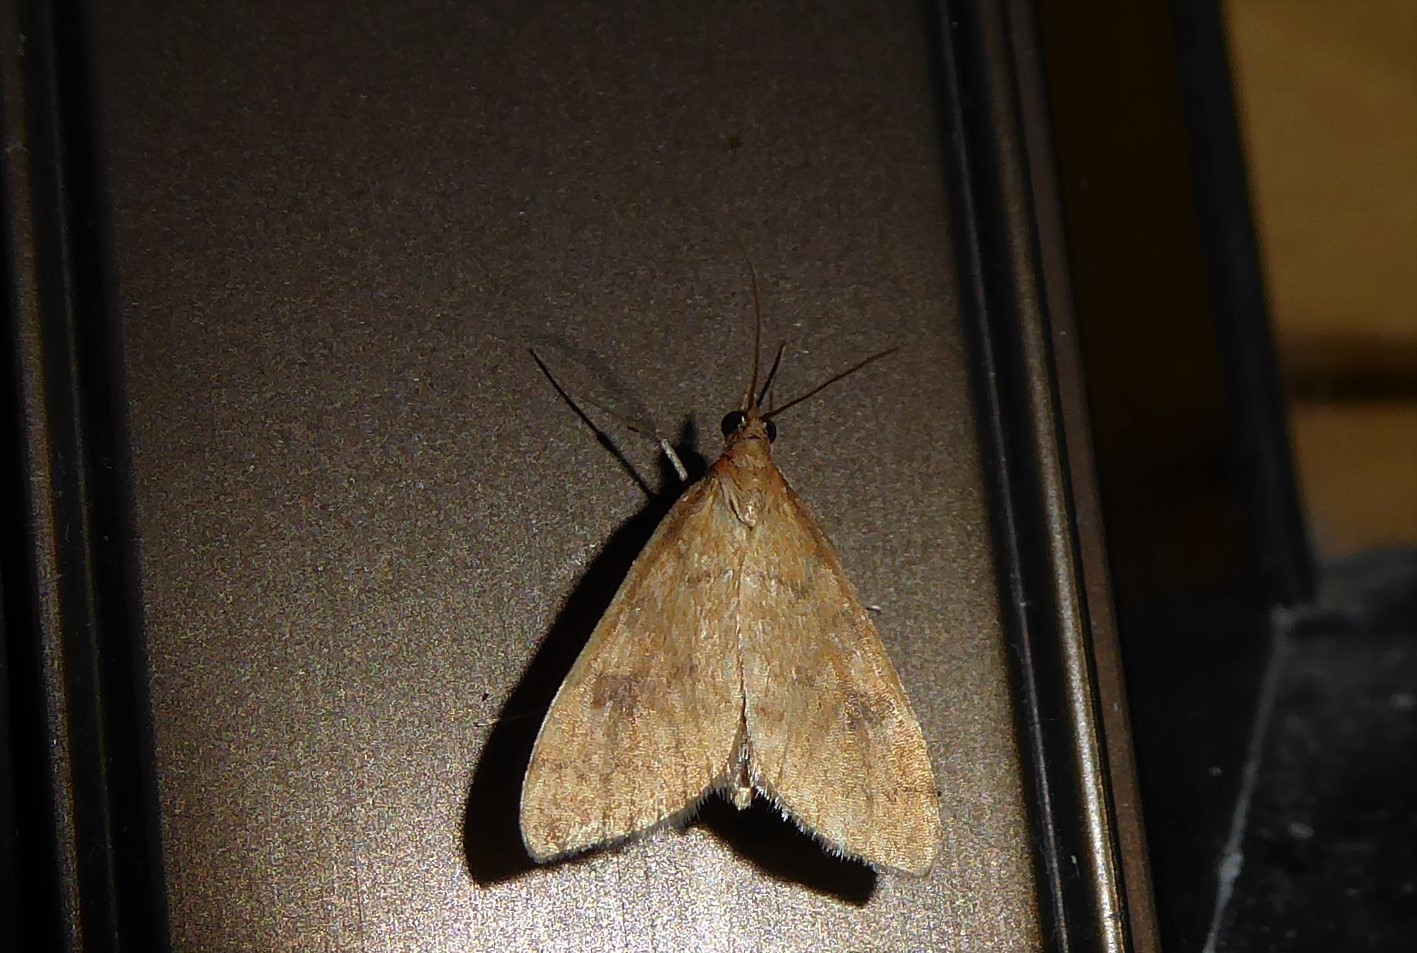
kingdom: Animalia
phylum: Arthropoda
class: Insecta
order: Lepidoptera
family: Crambidae
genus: Udea
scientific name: Udea Mnesictena flavidalis
